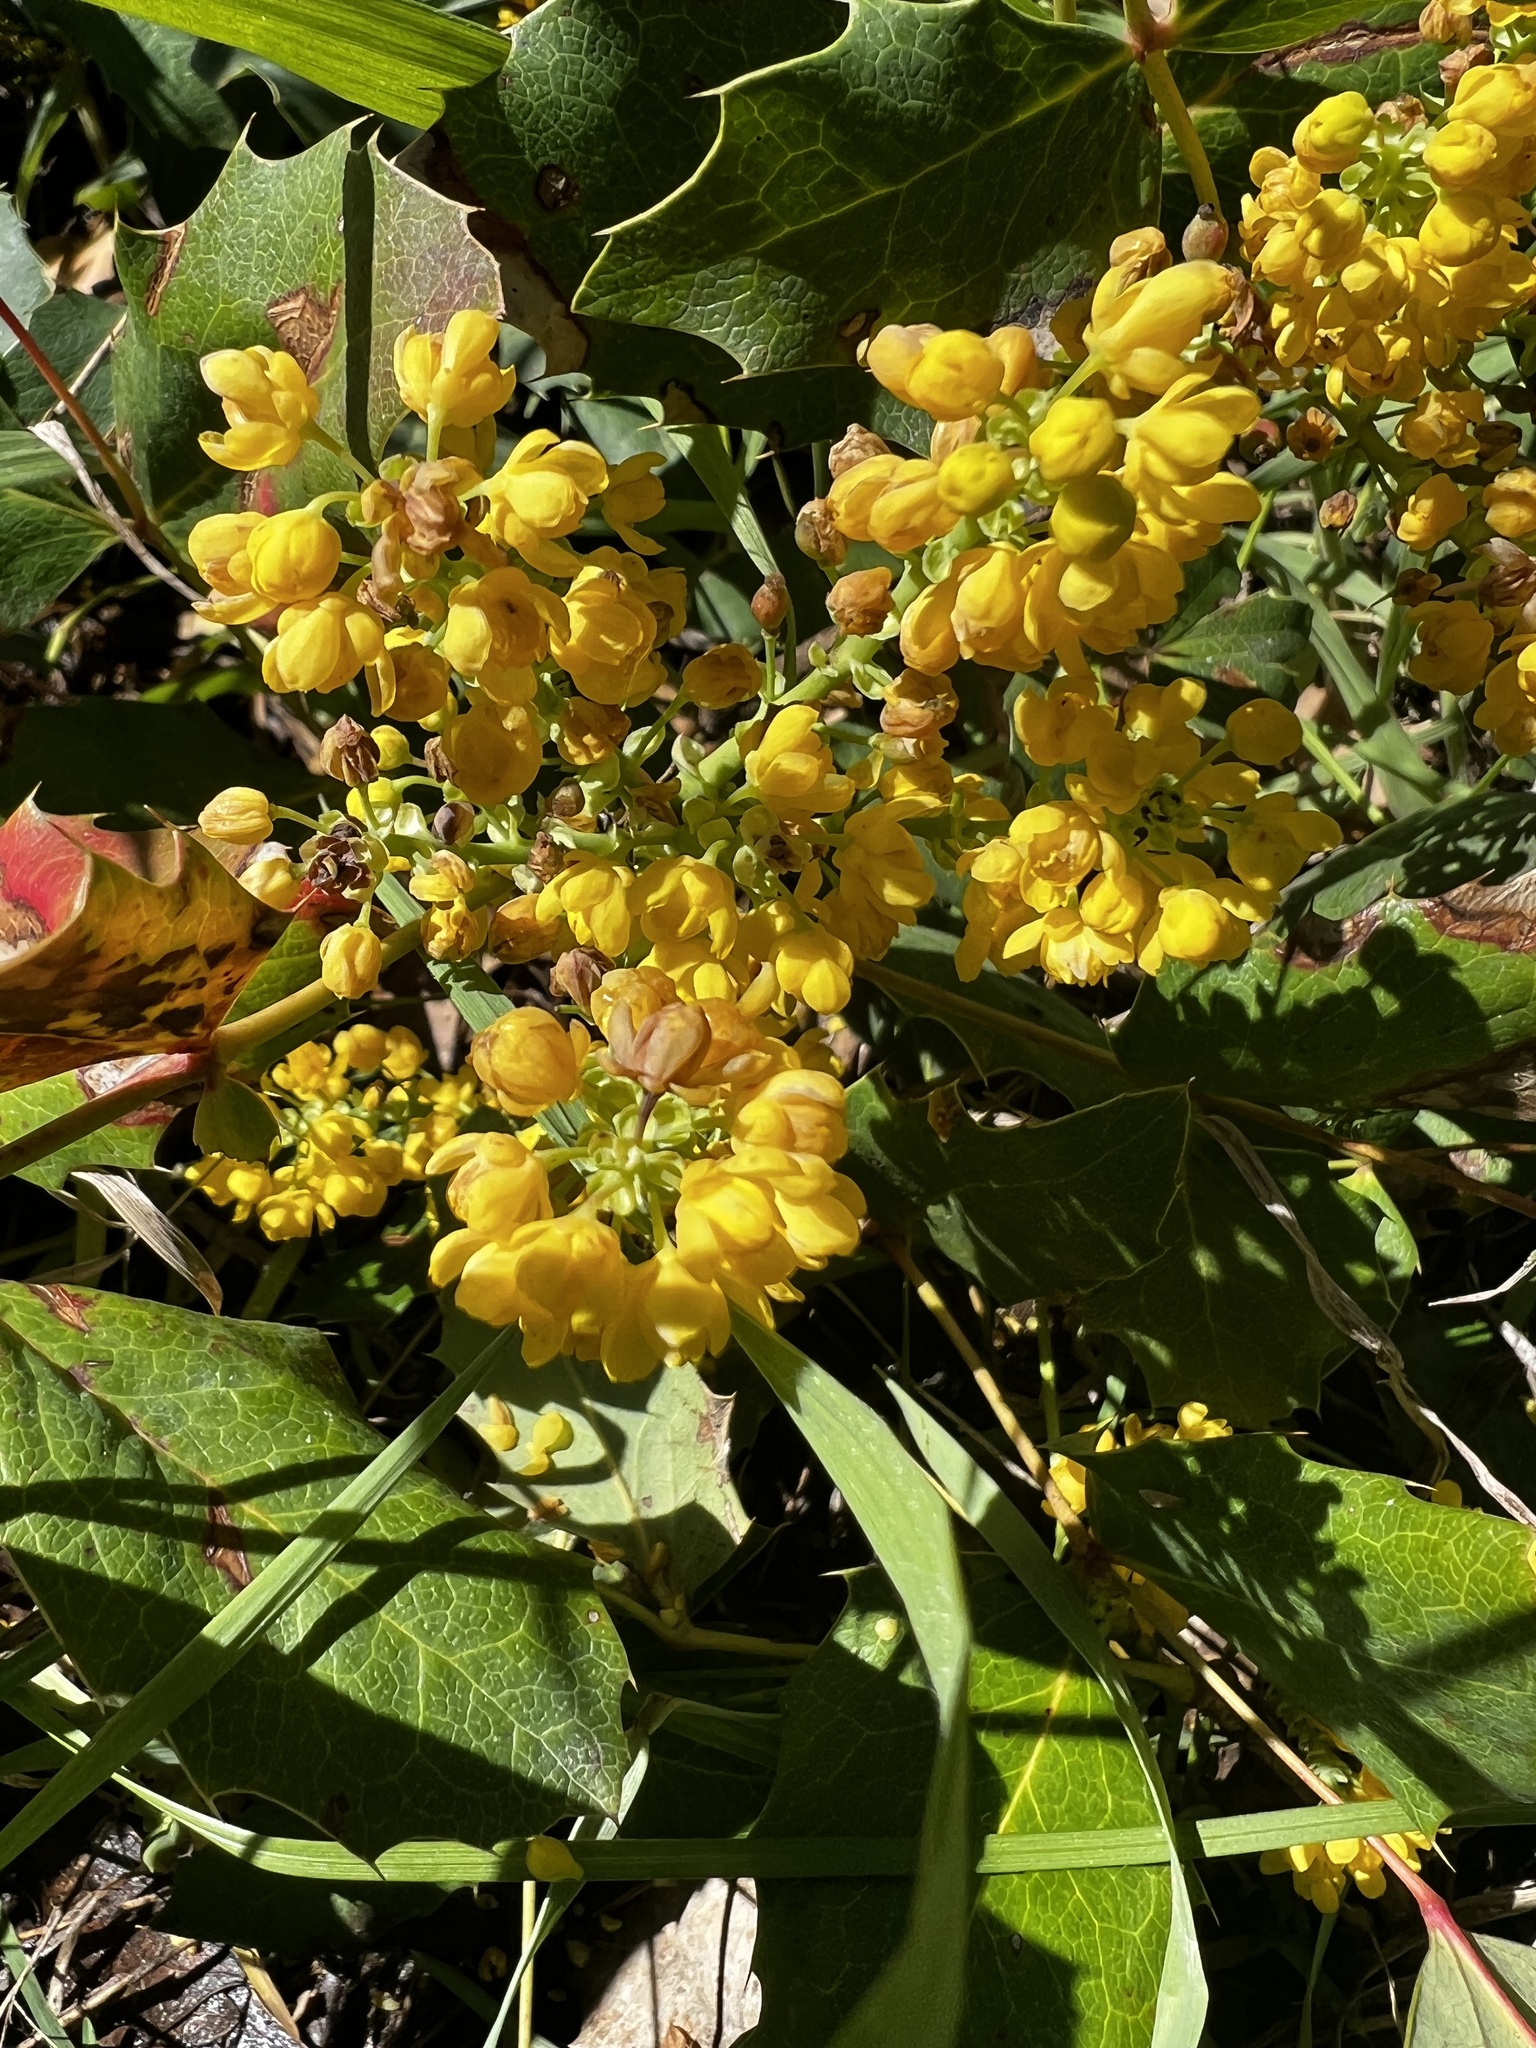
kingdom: Plantae
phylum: Tracheophyta
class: Magnoliopsida
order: Ranunculales
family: Berberidaceae
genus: Mahonia
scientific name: Mahonia repens
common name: Creeping oregon-grape
